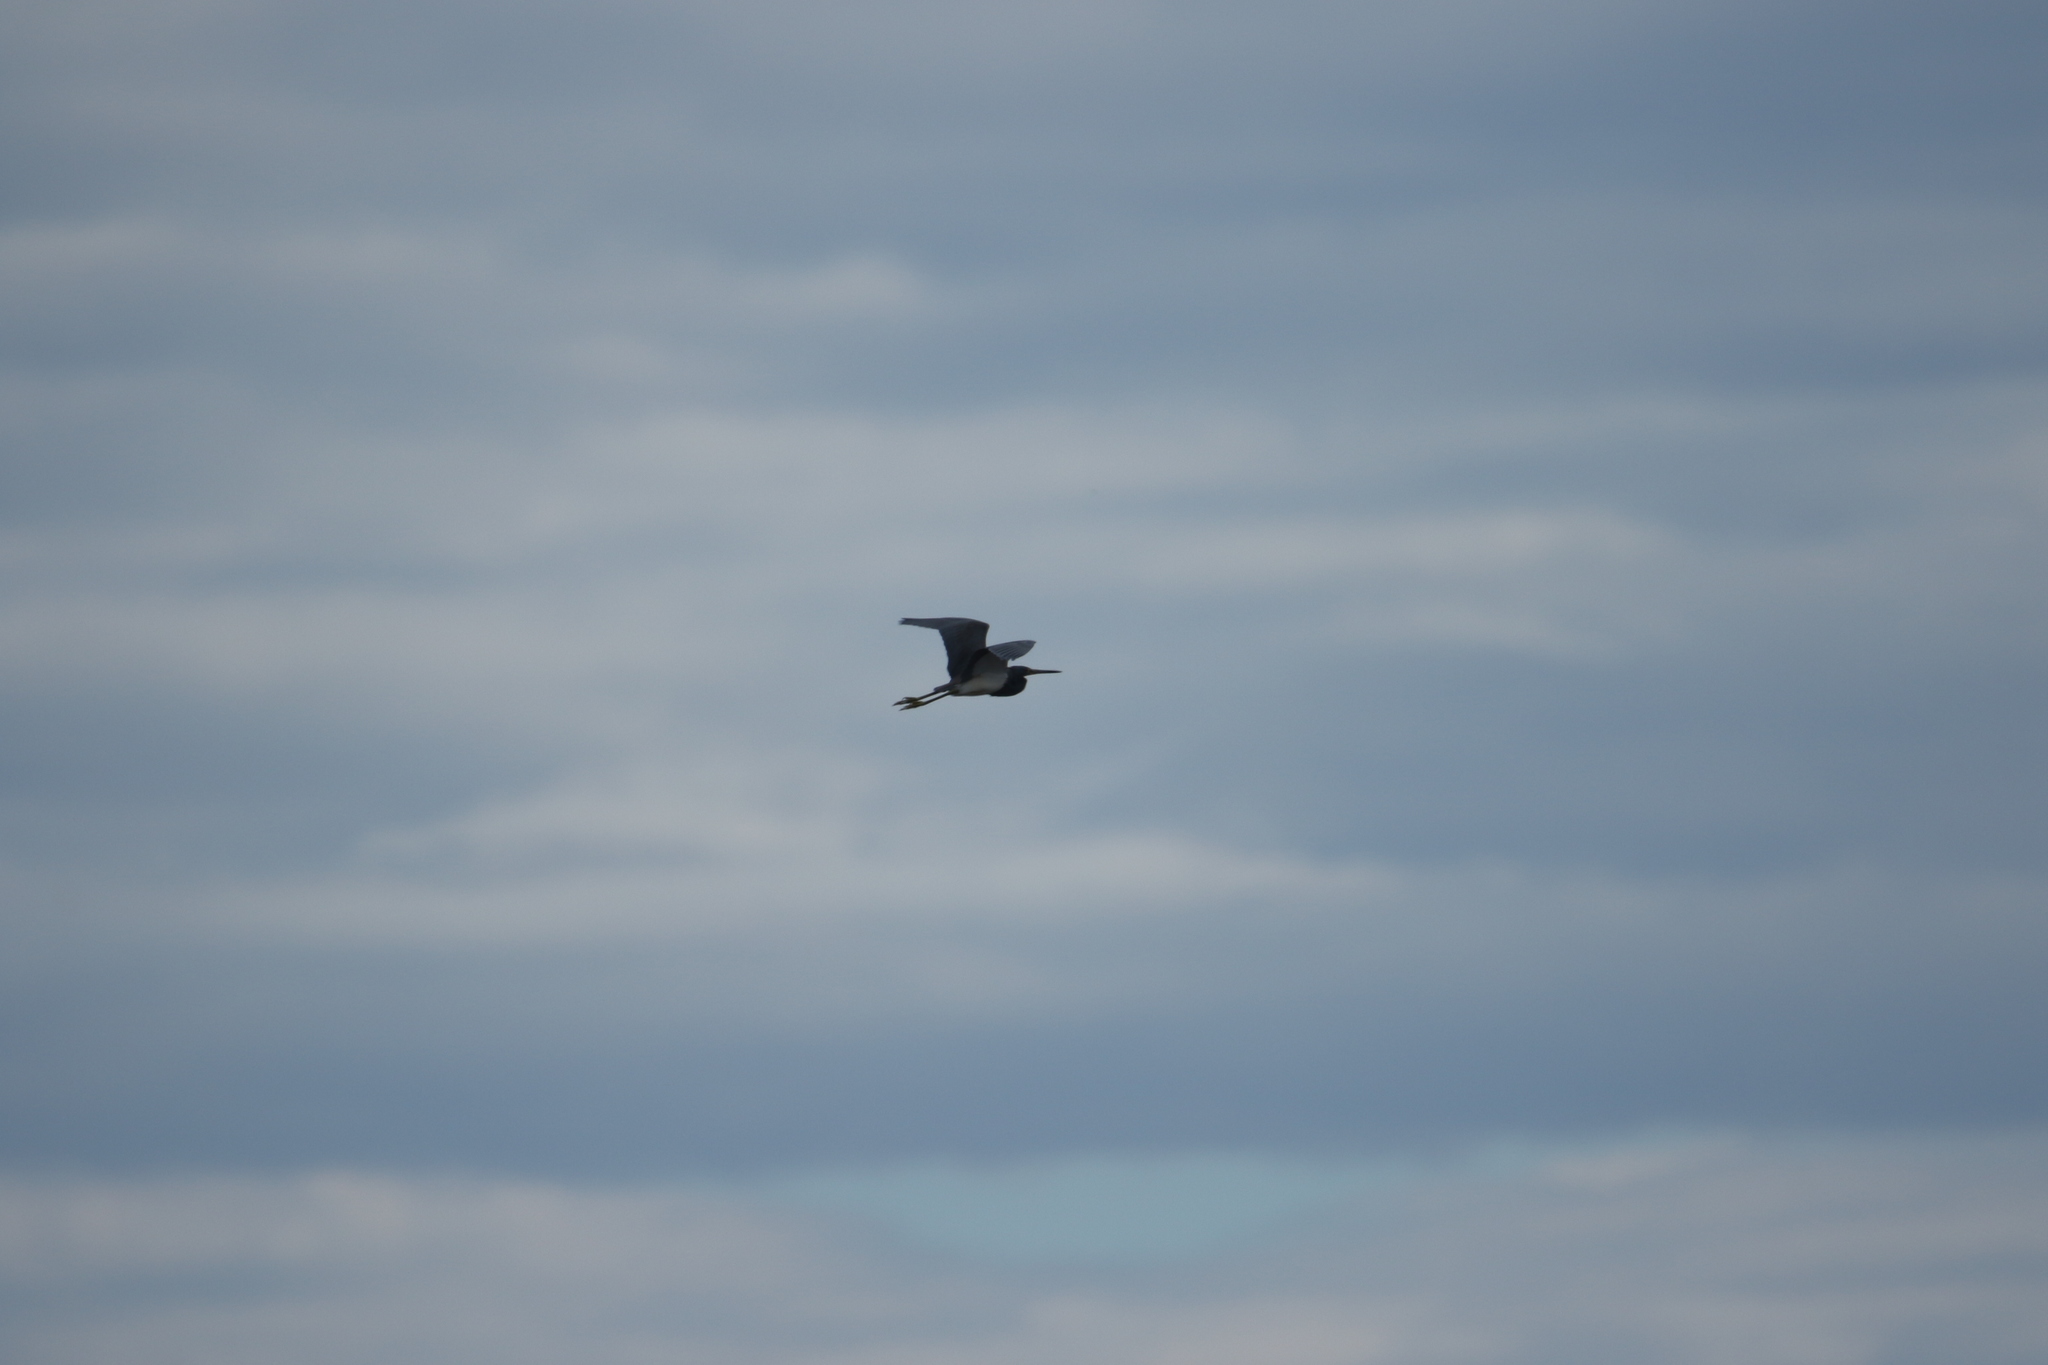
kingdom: Animalia
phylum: Chordata
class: Aves
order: Pelecaniformes
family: Ardeidae
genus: Egretta
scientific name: Egretta tricolor
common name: Tricolored heron
